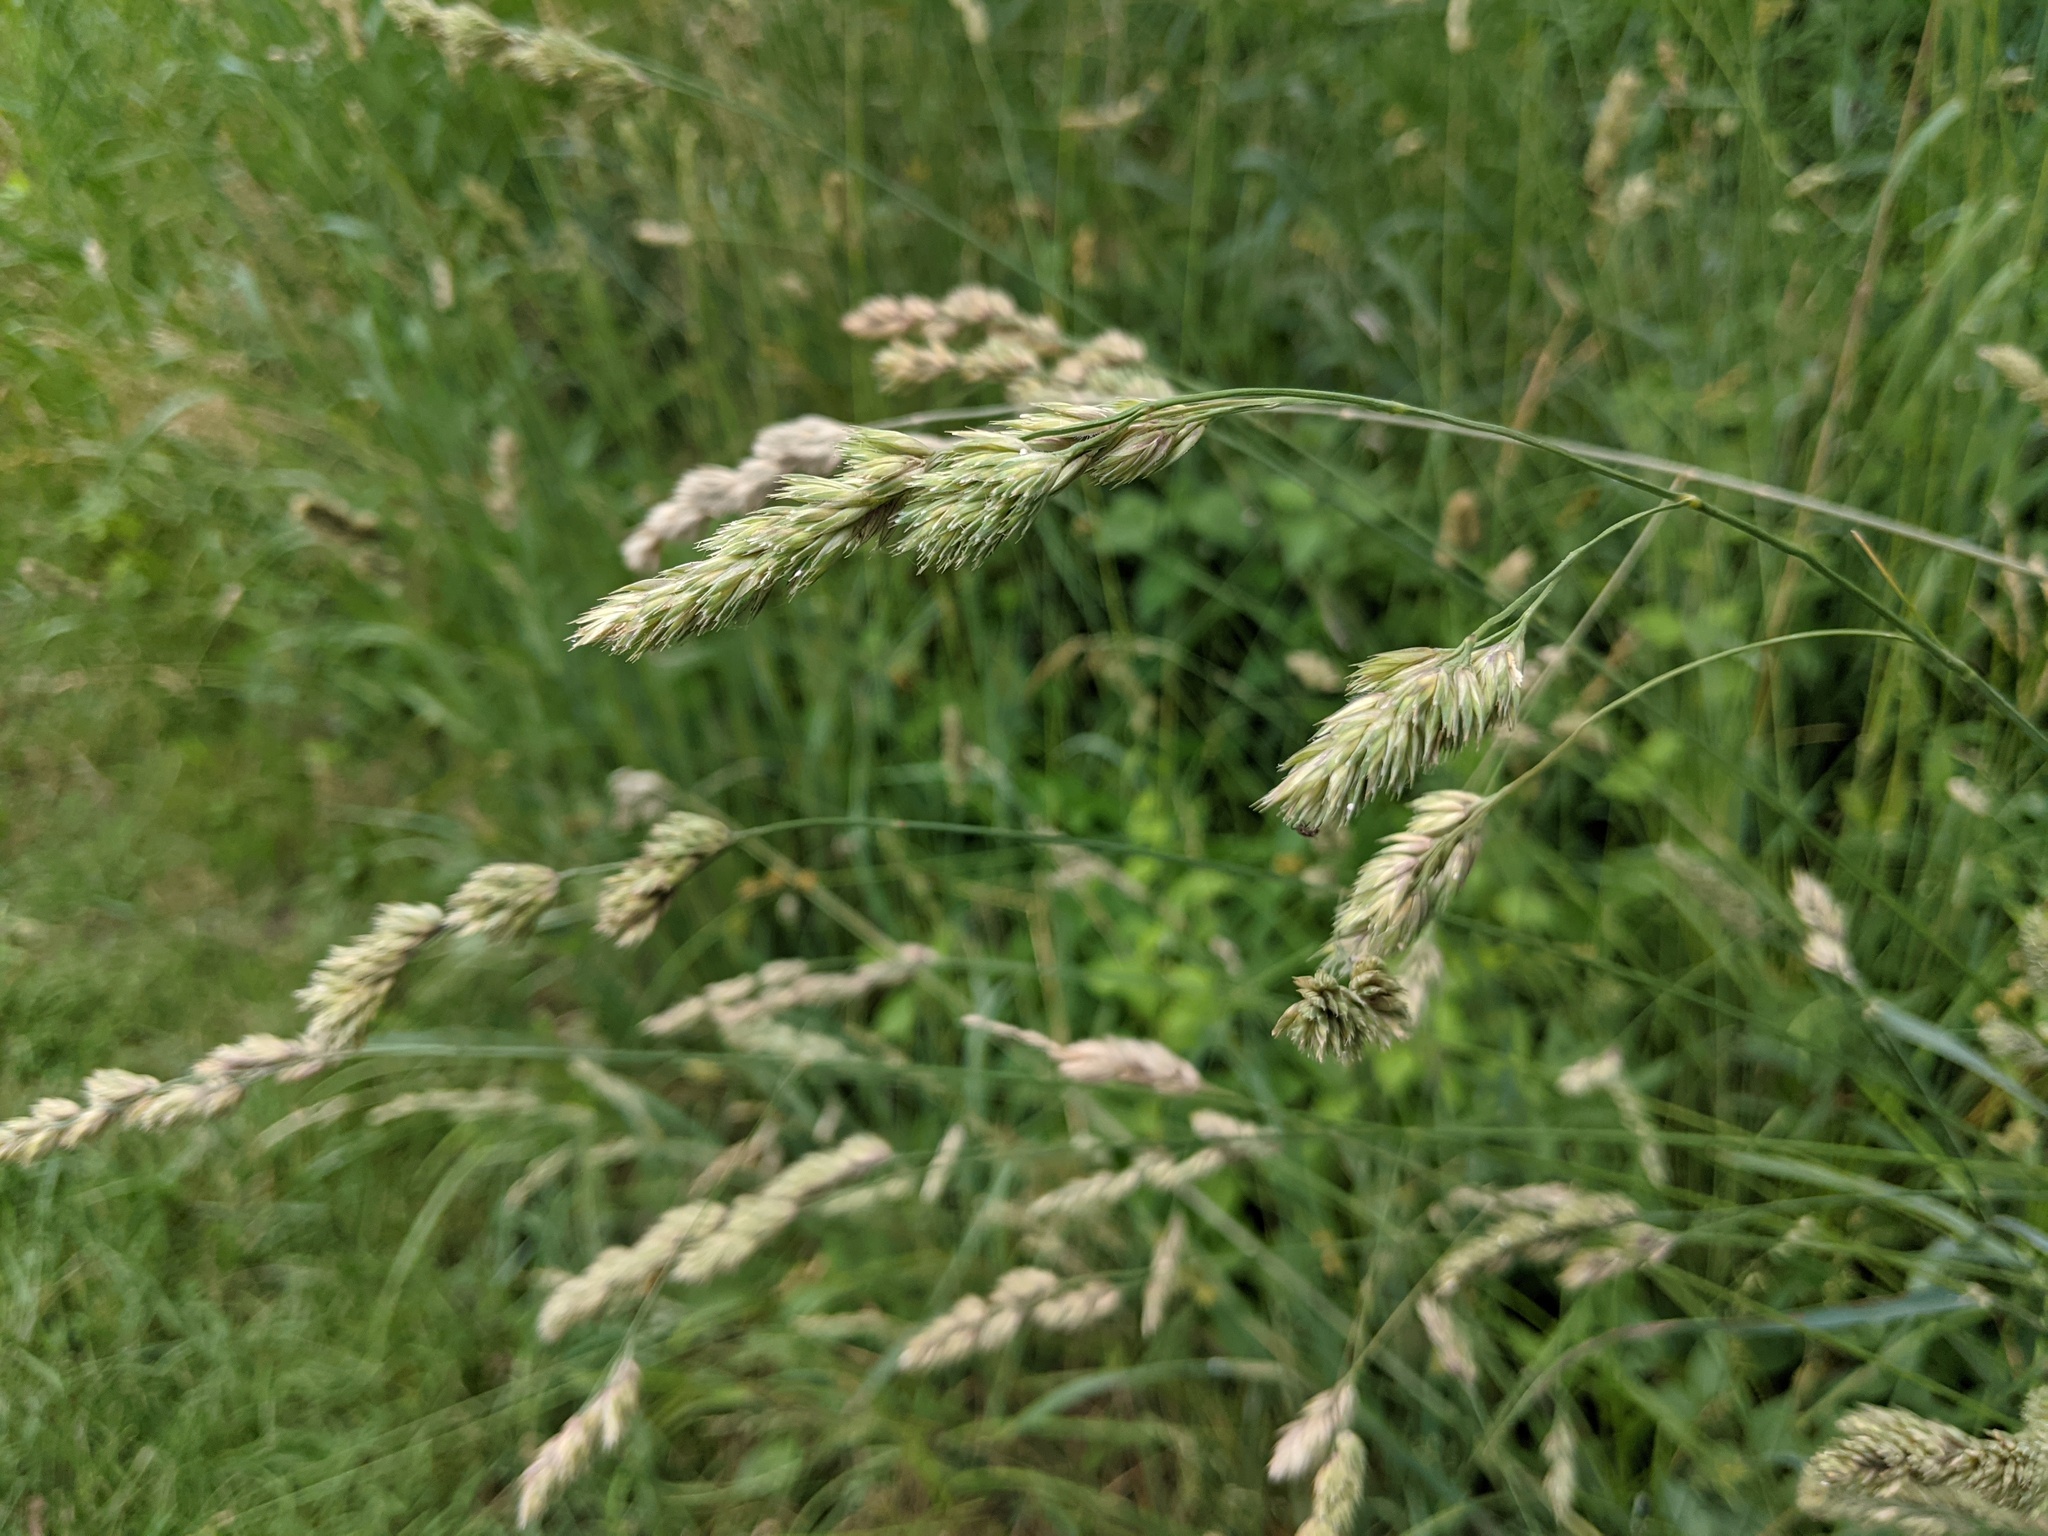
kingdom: Plantae
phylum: Tracheophyta
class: Liliopsida
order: Poales
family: Poaceae
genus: Dactylis
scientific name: Dactylis glomerata
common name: Orchardgrass
